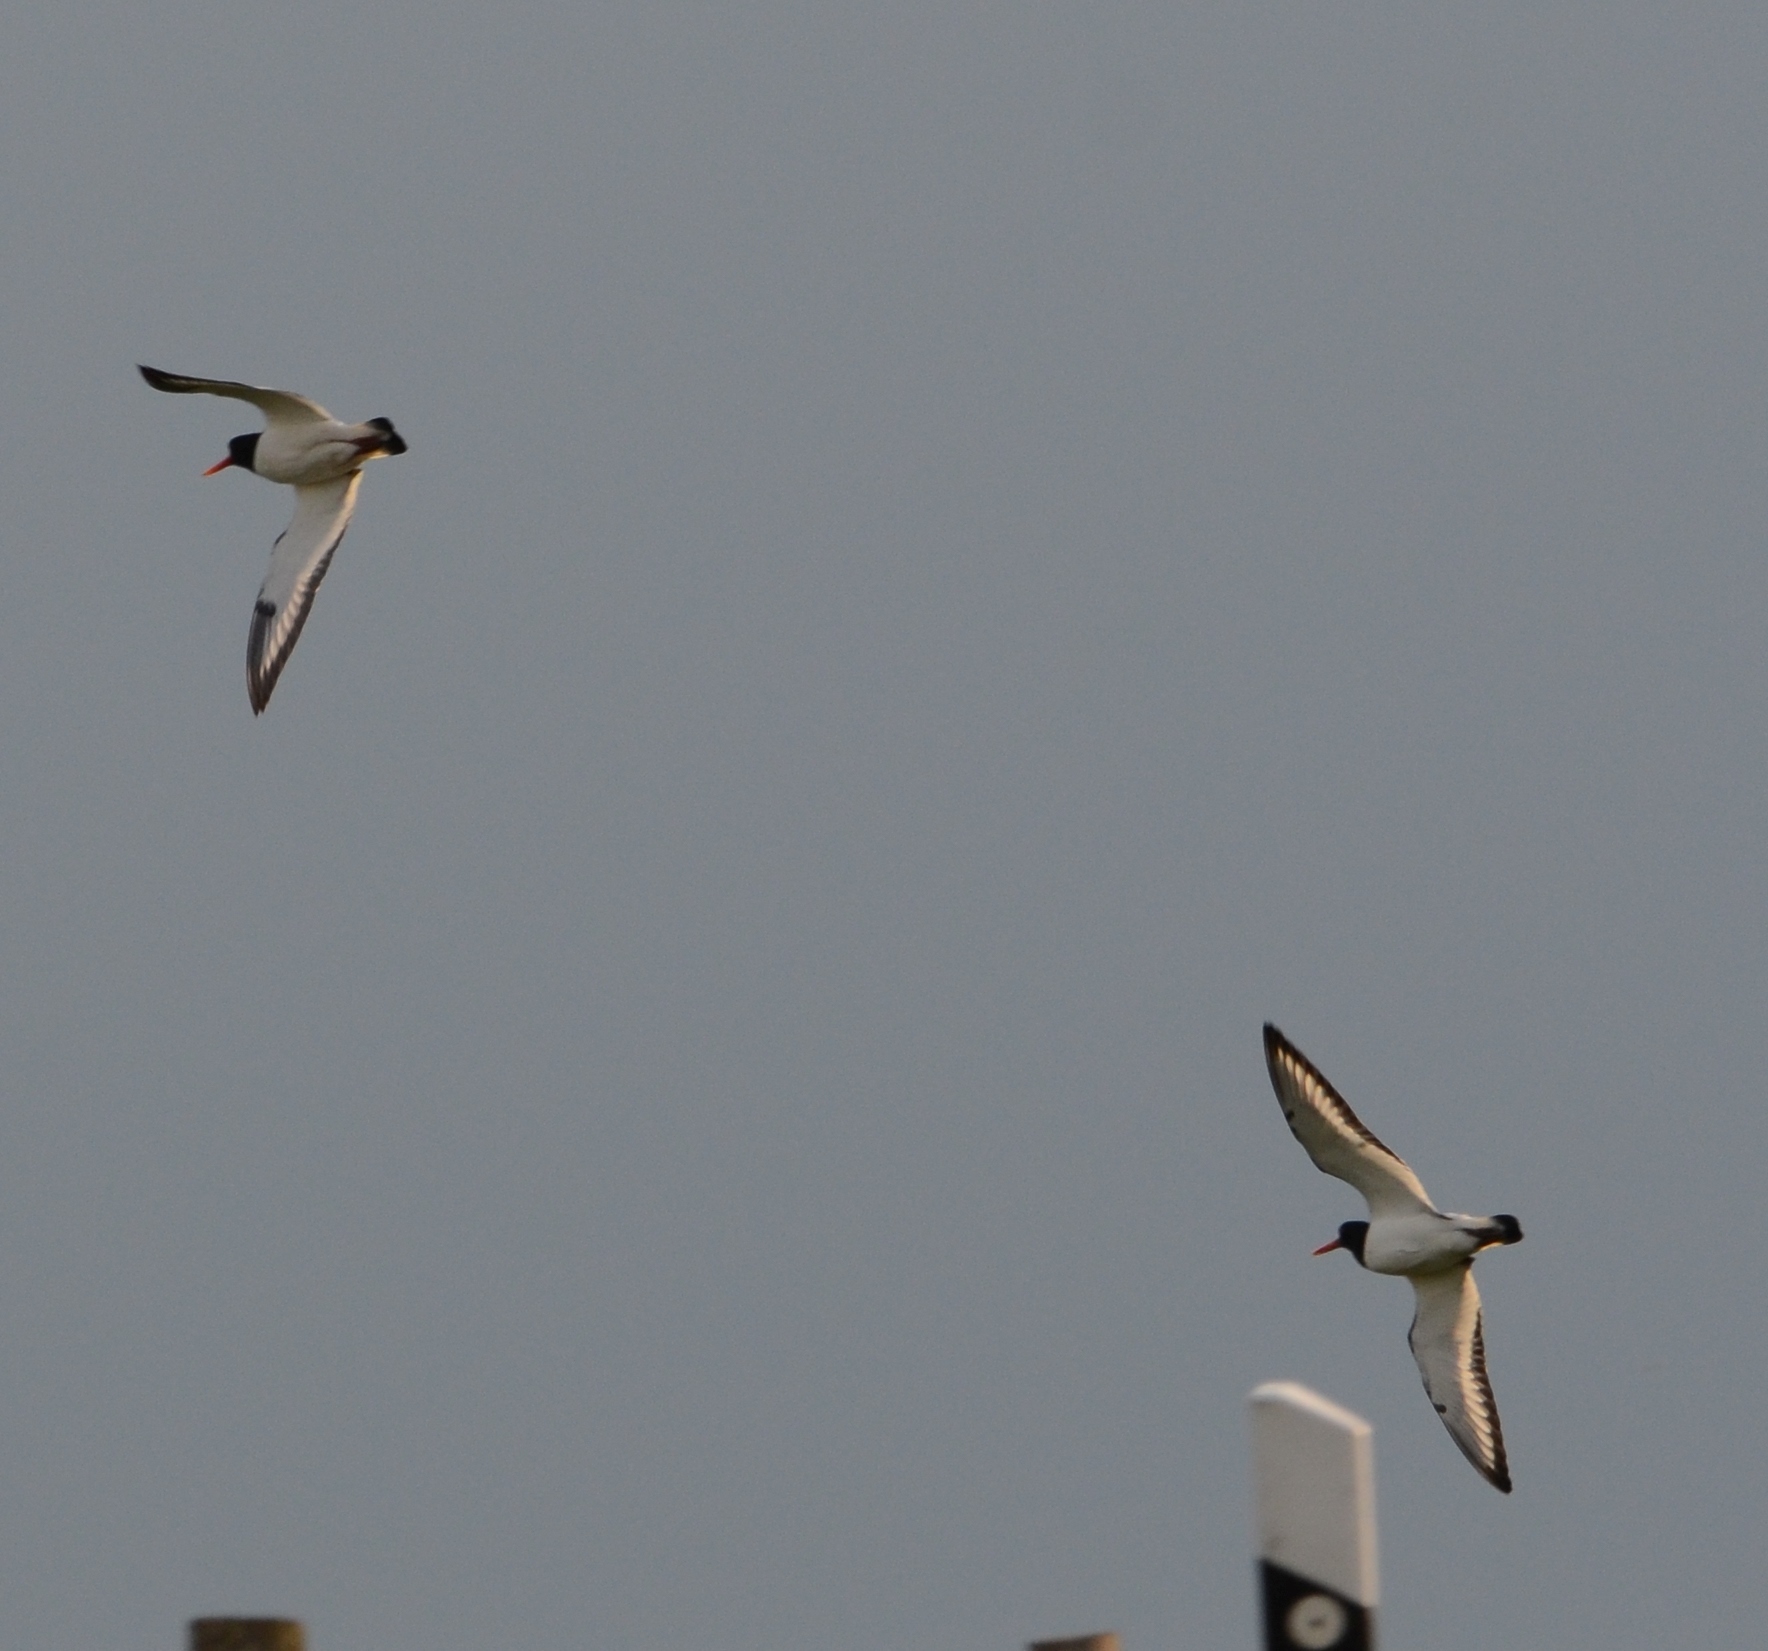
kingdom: Animalia
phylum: Chordata
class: Aves
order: Charadriiformes
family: Haematopodidae
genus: Haematopus
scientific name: Haematopus ostralegus
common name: Eurasian oystercatcher
